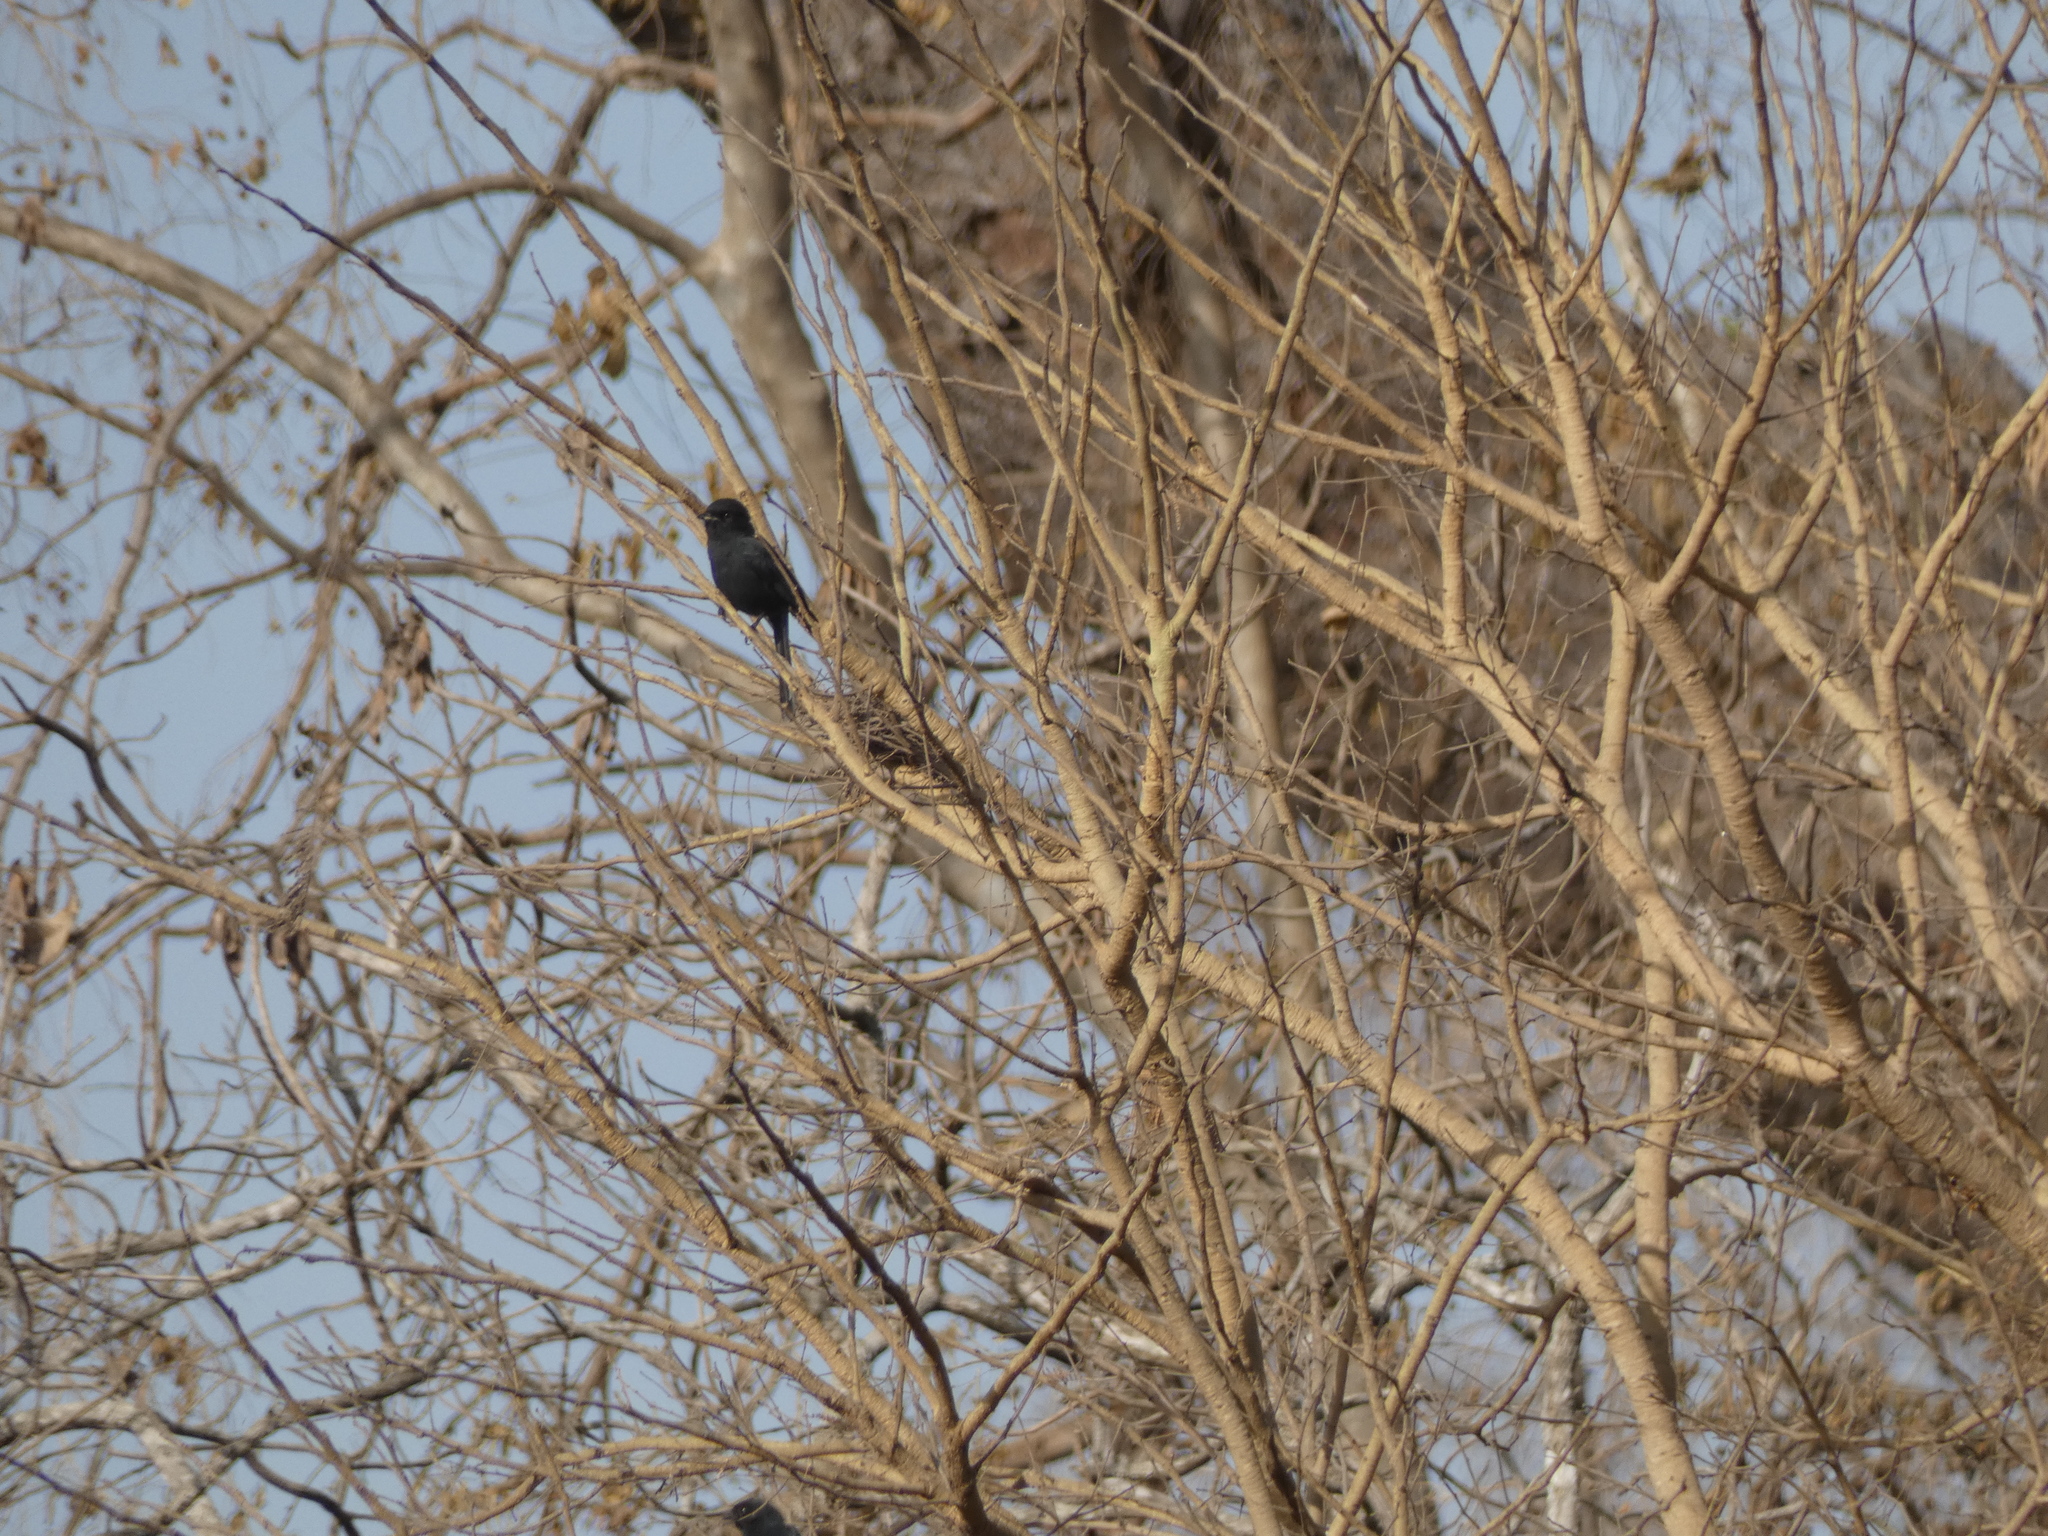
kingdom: Animalia
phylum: Chordata
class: Aves
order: Passeriformes
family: Muscicapidae
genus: Melaenornis
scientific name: Melaenornis edolioides
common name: Northern black flycatcher
